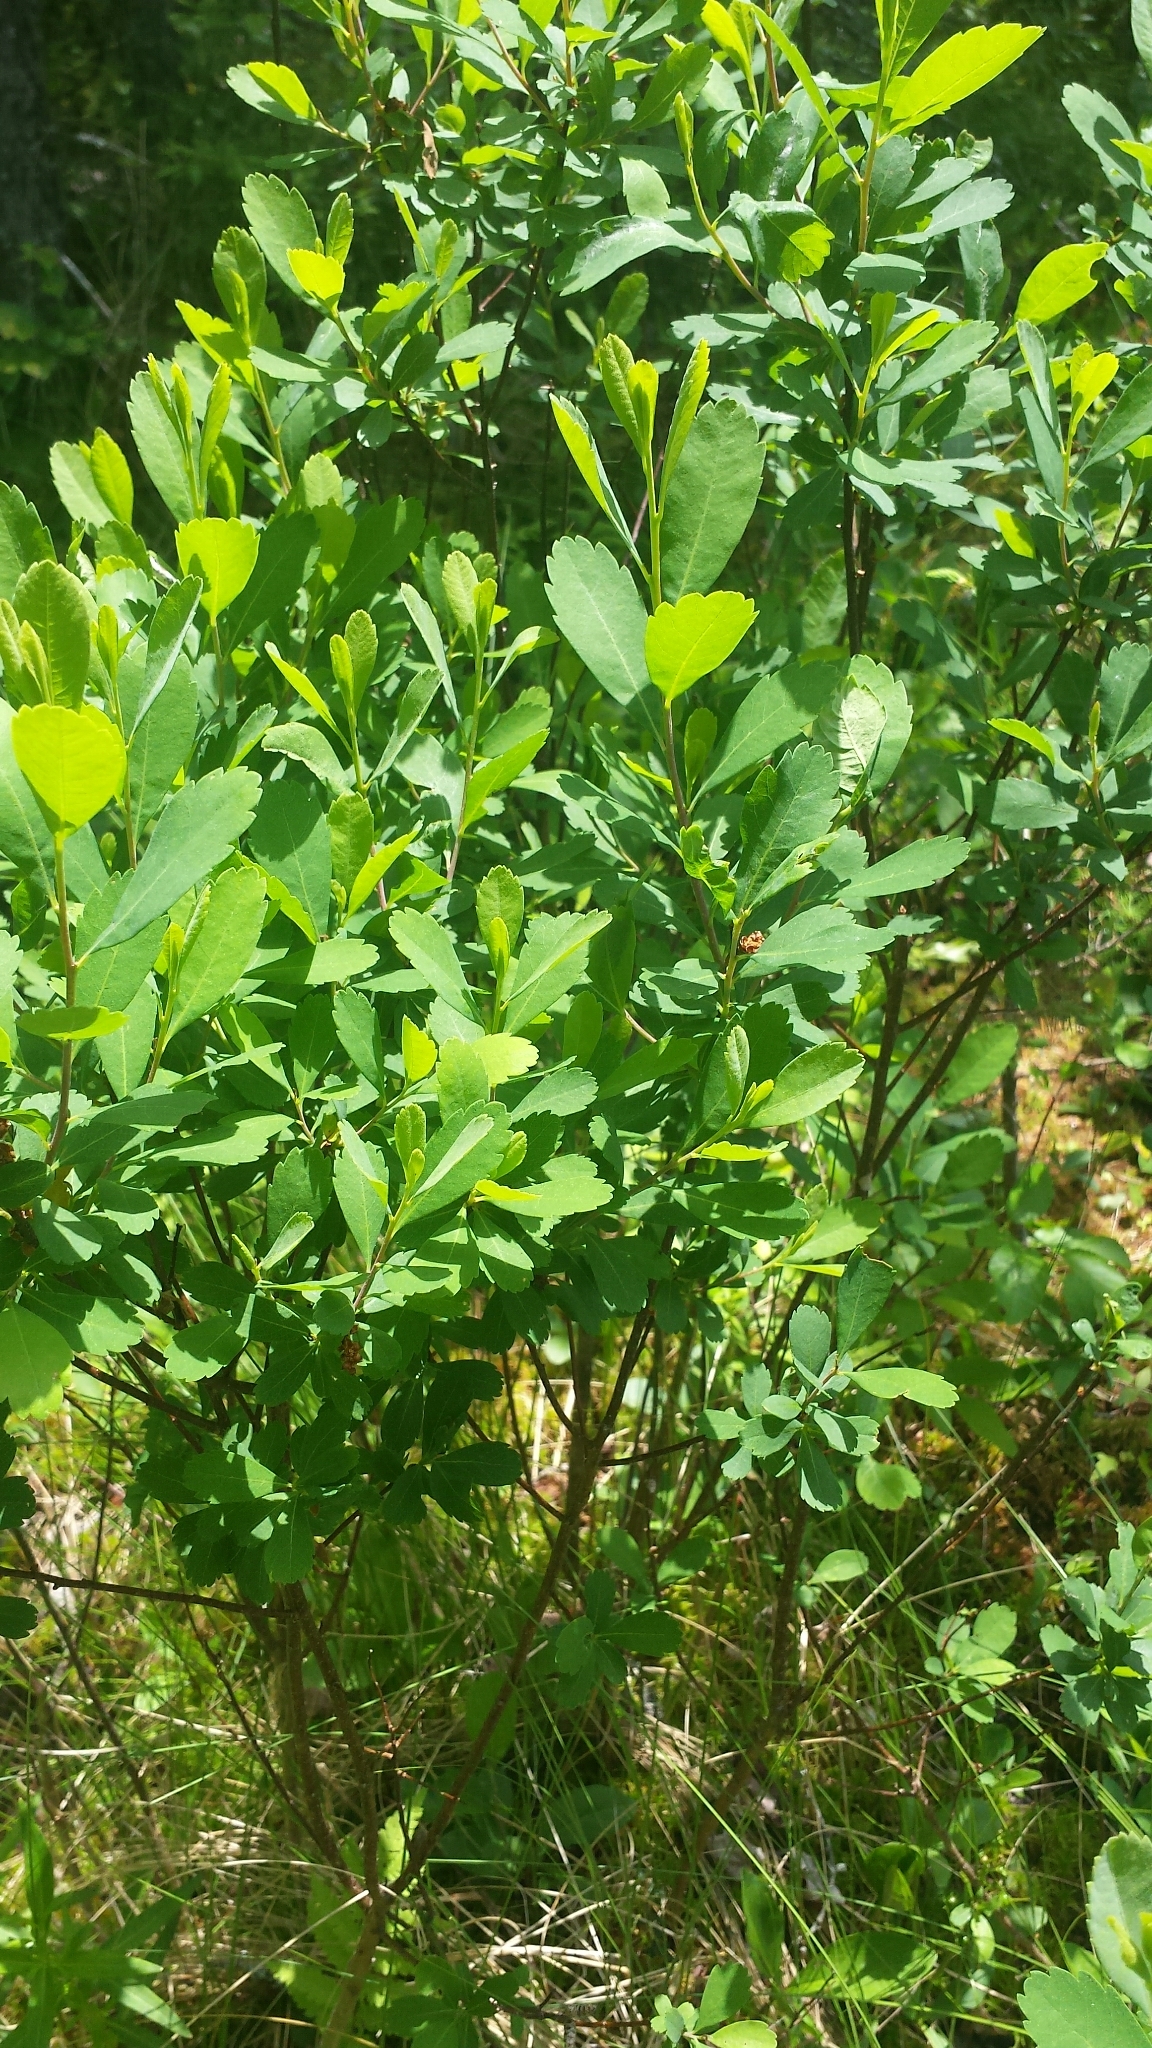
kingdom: Plantae
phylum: Tracheophyta
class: Magnoliopsida
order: Fagales
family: Myricaceae
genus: Myrica
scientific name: Myrica gale
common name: Sweet gale
